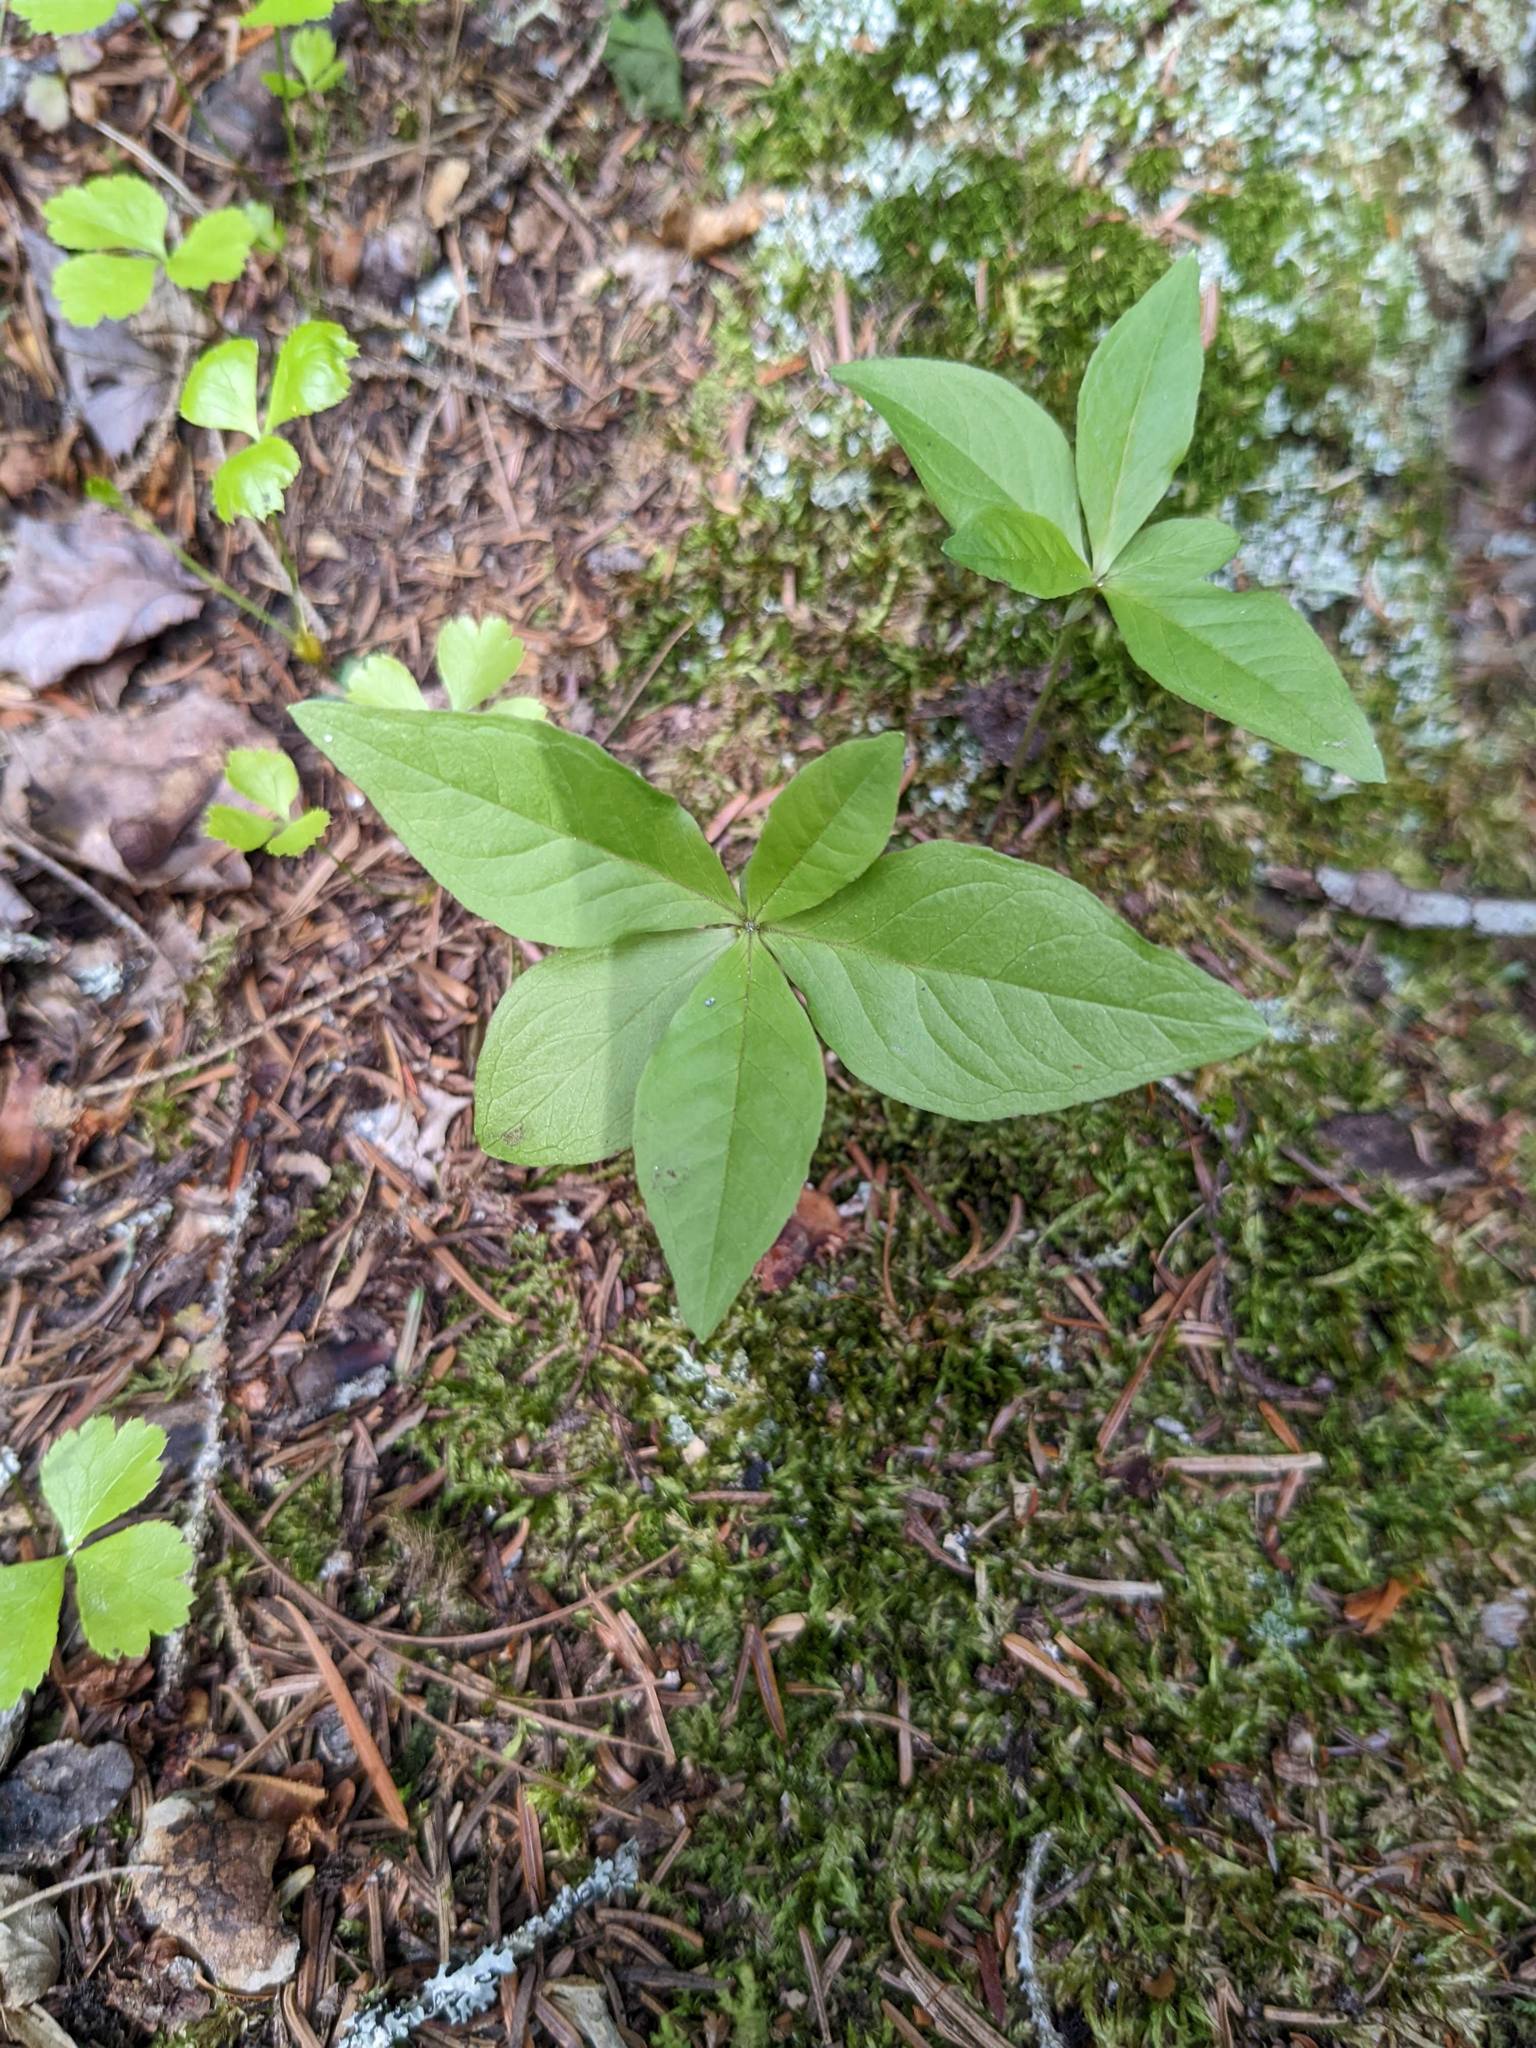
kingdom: Plantae
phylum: Tracheophyta
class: Magnoliopsida
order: Ericales
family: Primulaceae
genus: Lysimachia
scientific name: Lysimachia borealis
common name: American starflower
